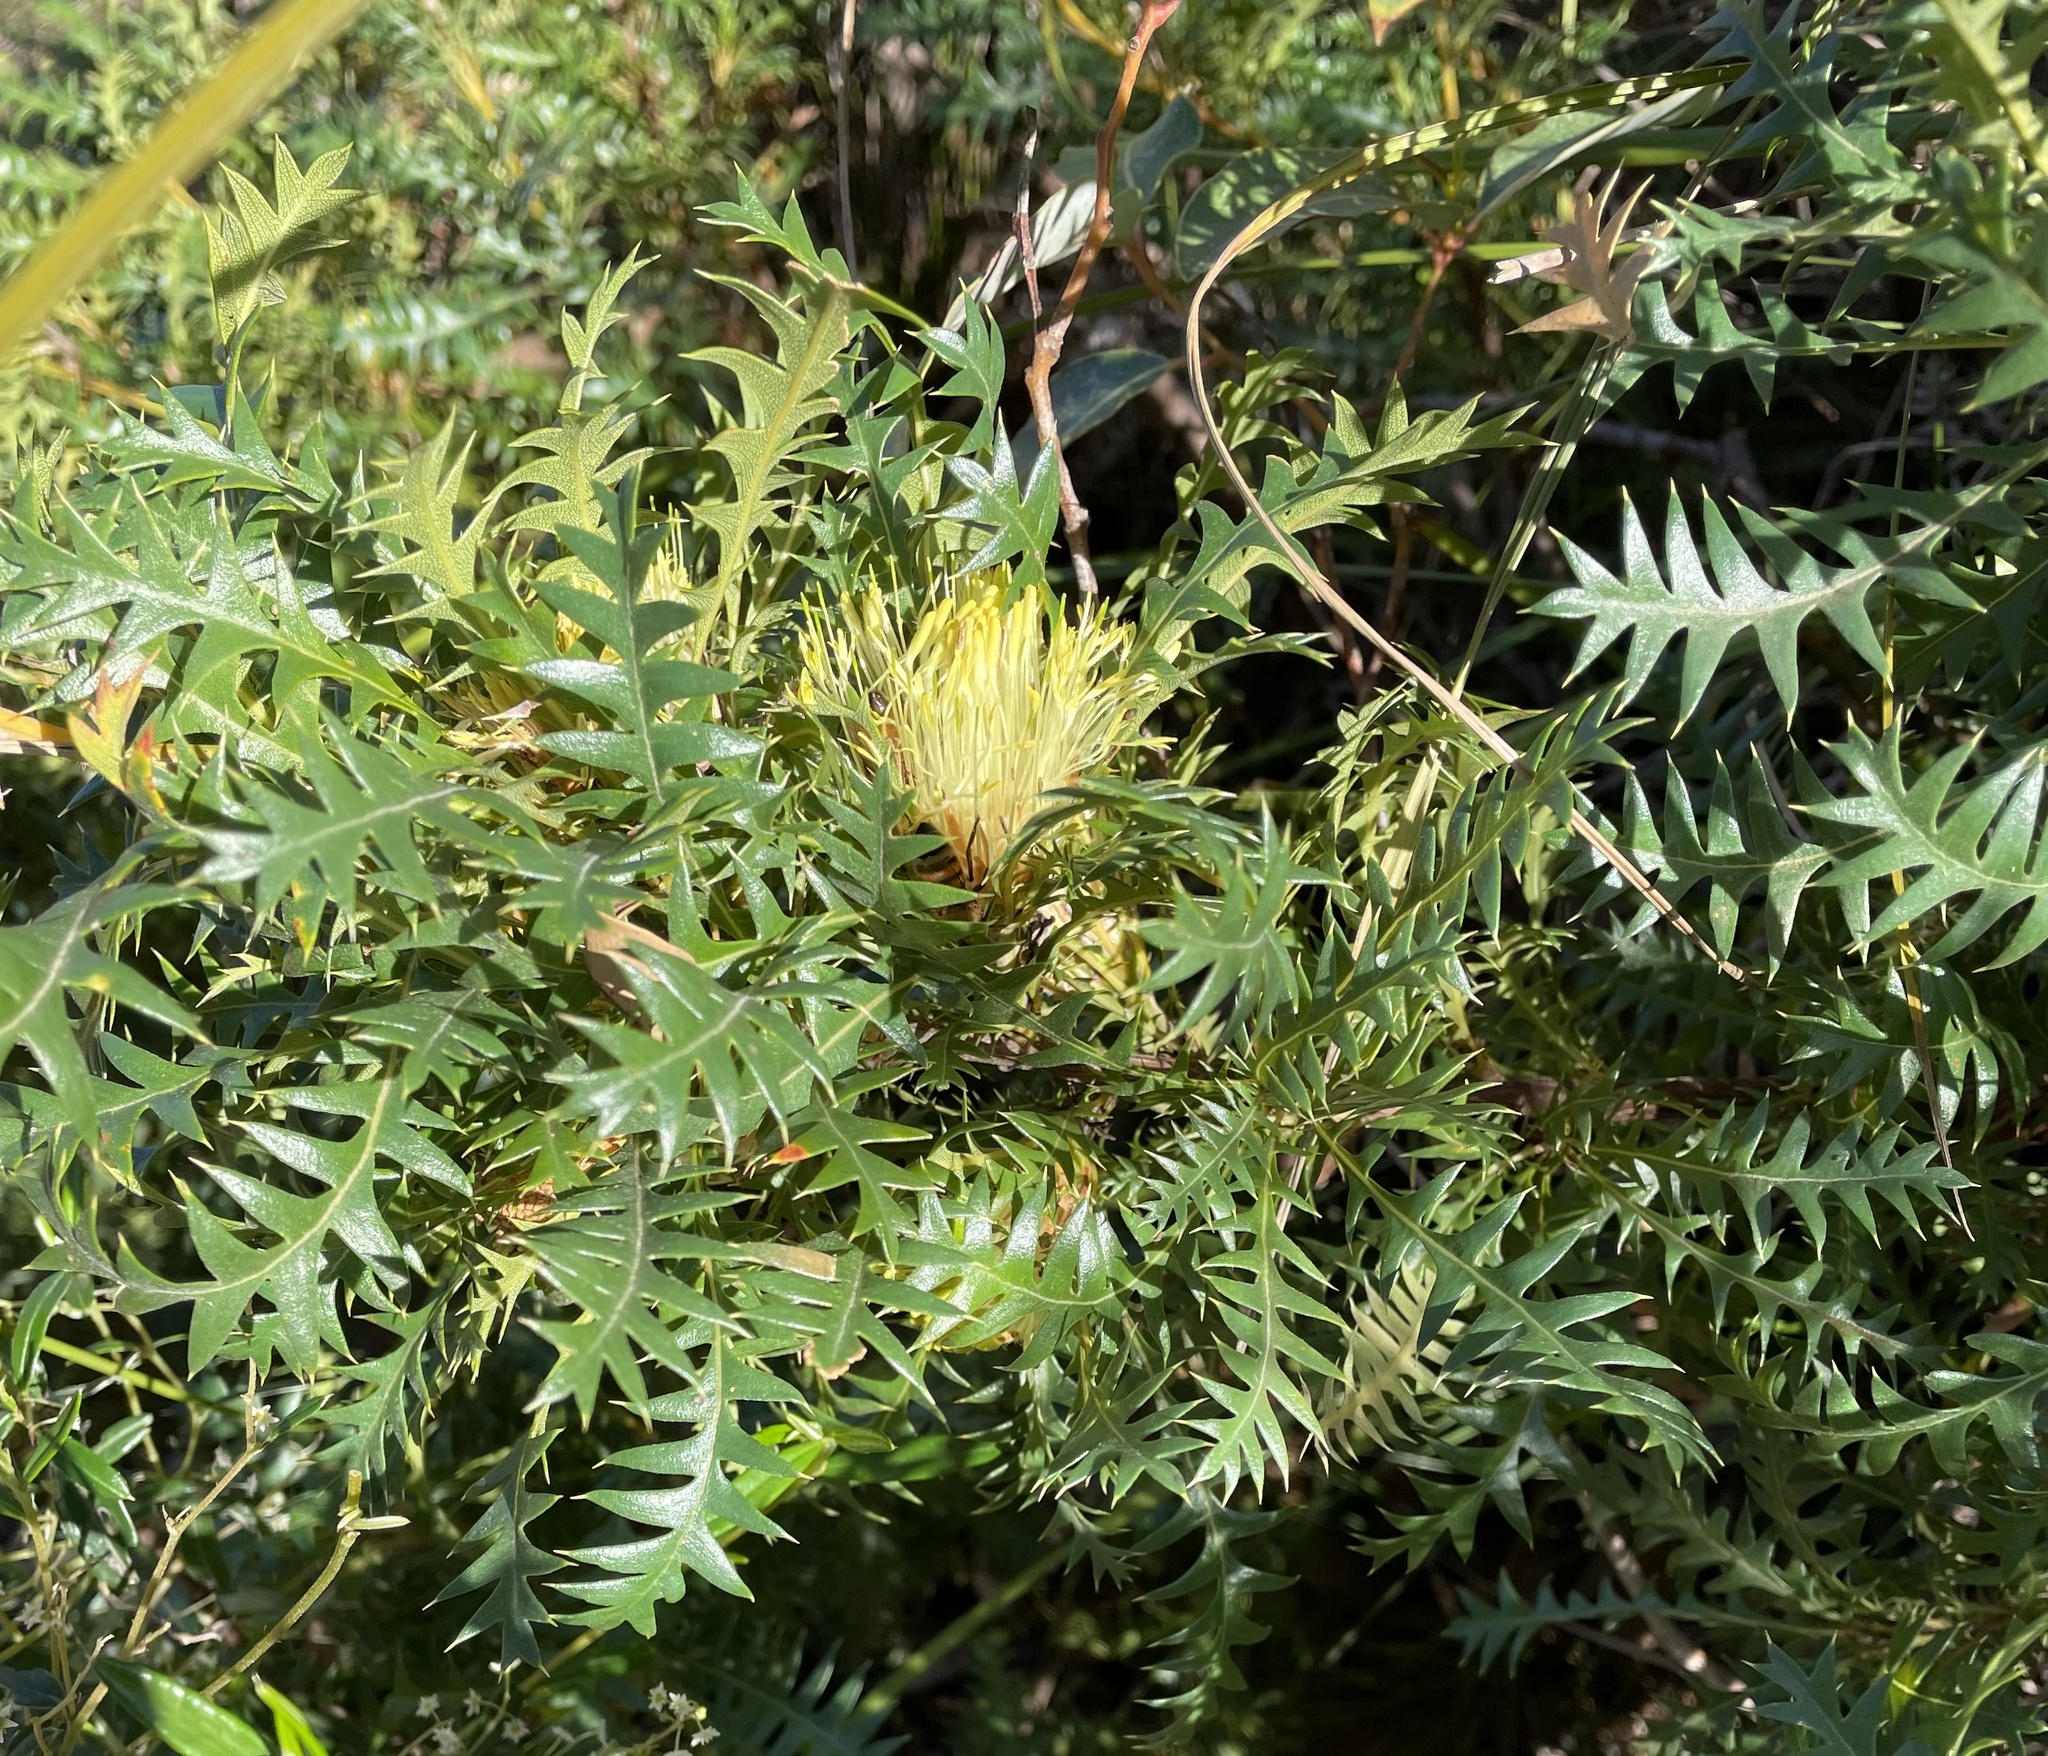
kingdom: Plantae
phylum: Tracheophyta
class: Magnoliopsida
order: Proteales
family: Proteaceae
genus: Banksia
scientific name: Banksia armata
